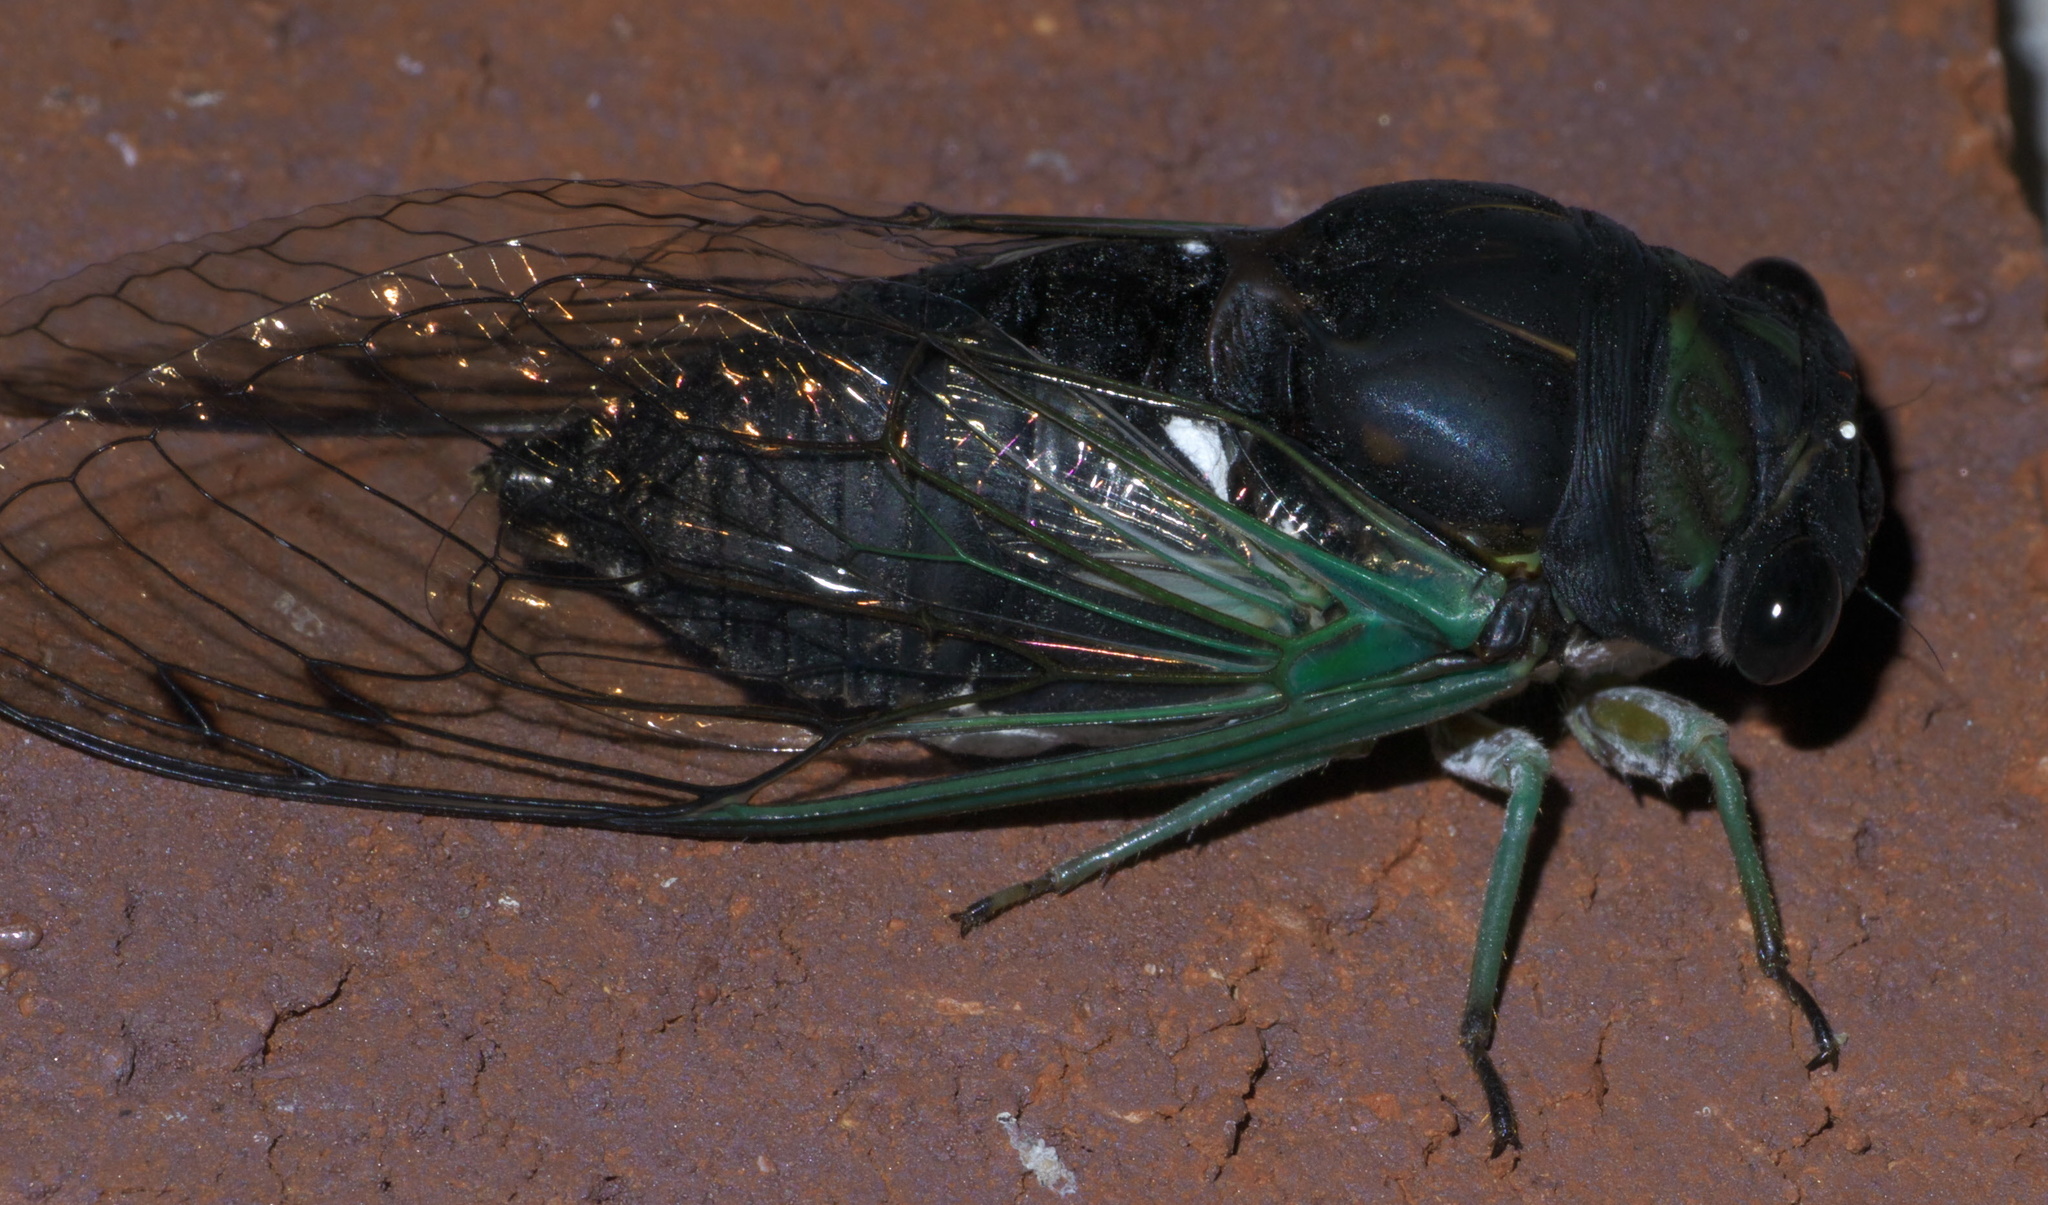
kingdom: Animalia
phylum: Arthropoda
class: Insecta
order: Hemiptera
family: Cicadidae
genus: Neotibicen
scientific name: Neotibicen tibicen
